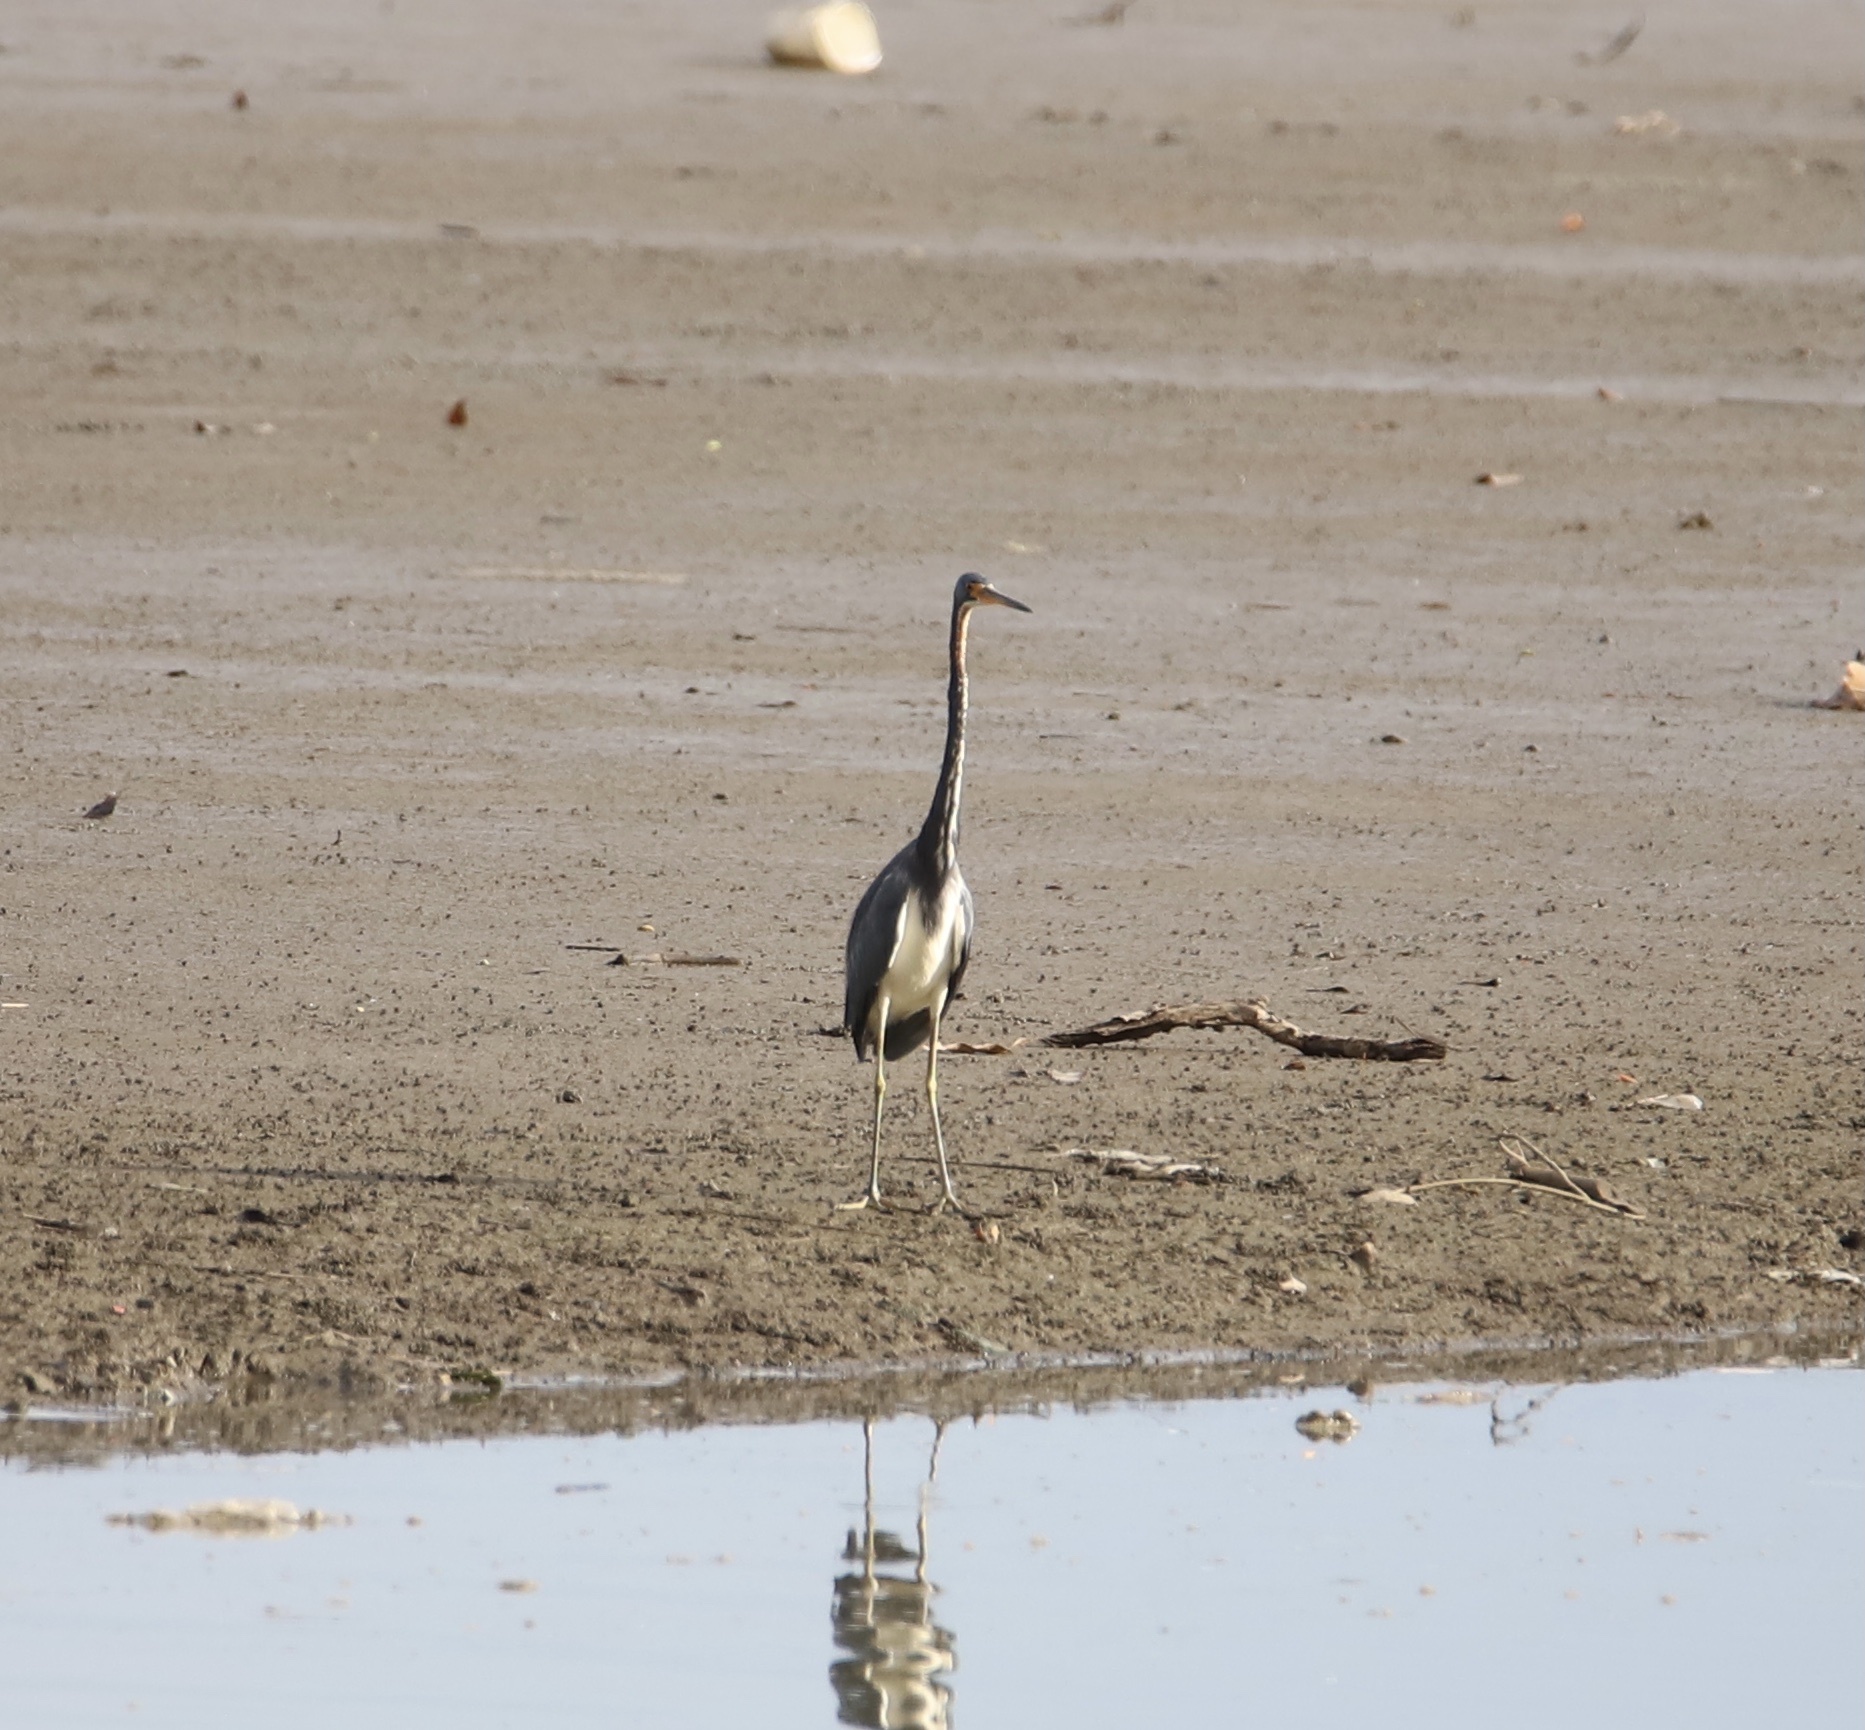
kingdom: Animalia
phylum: Chordata
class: Aves
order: Pelecaniformes
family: Ardeidae
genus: Egretta
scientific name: Egretta tricolor
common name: Tricolored heron
